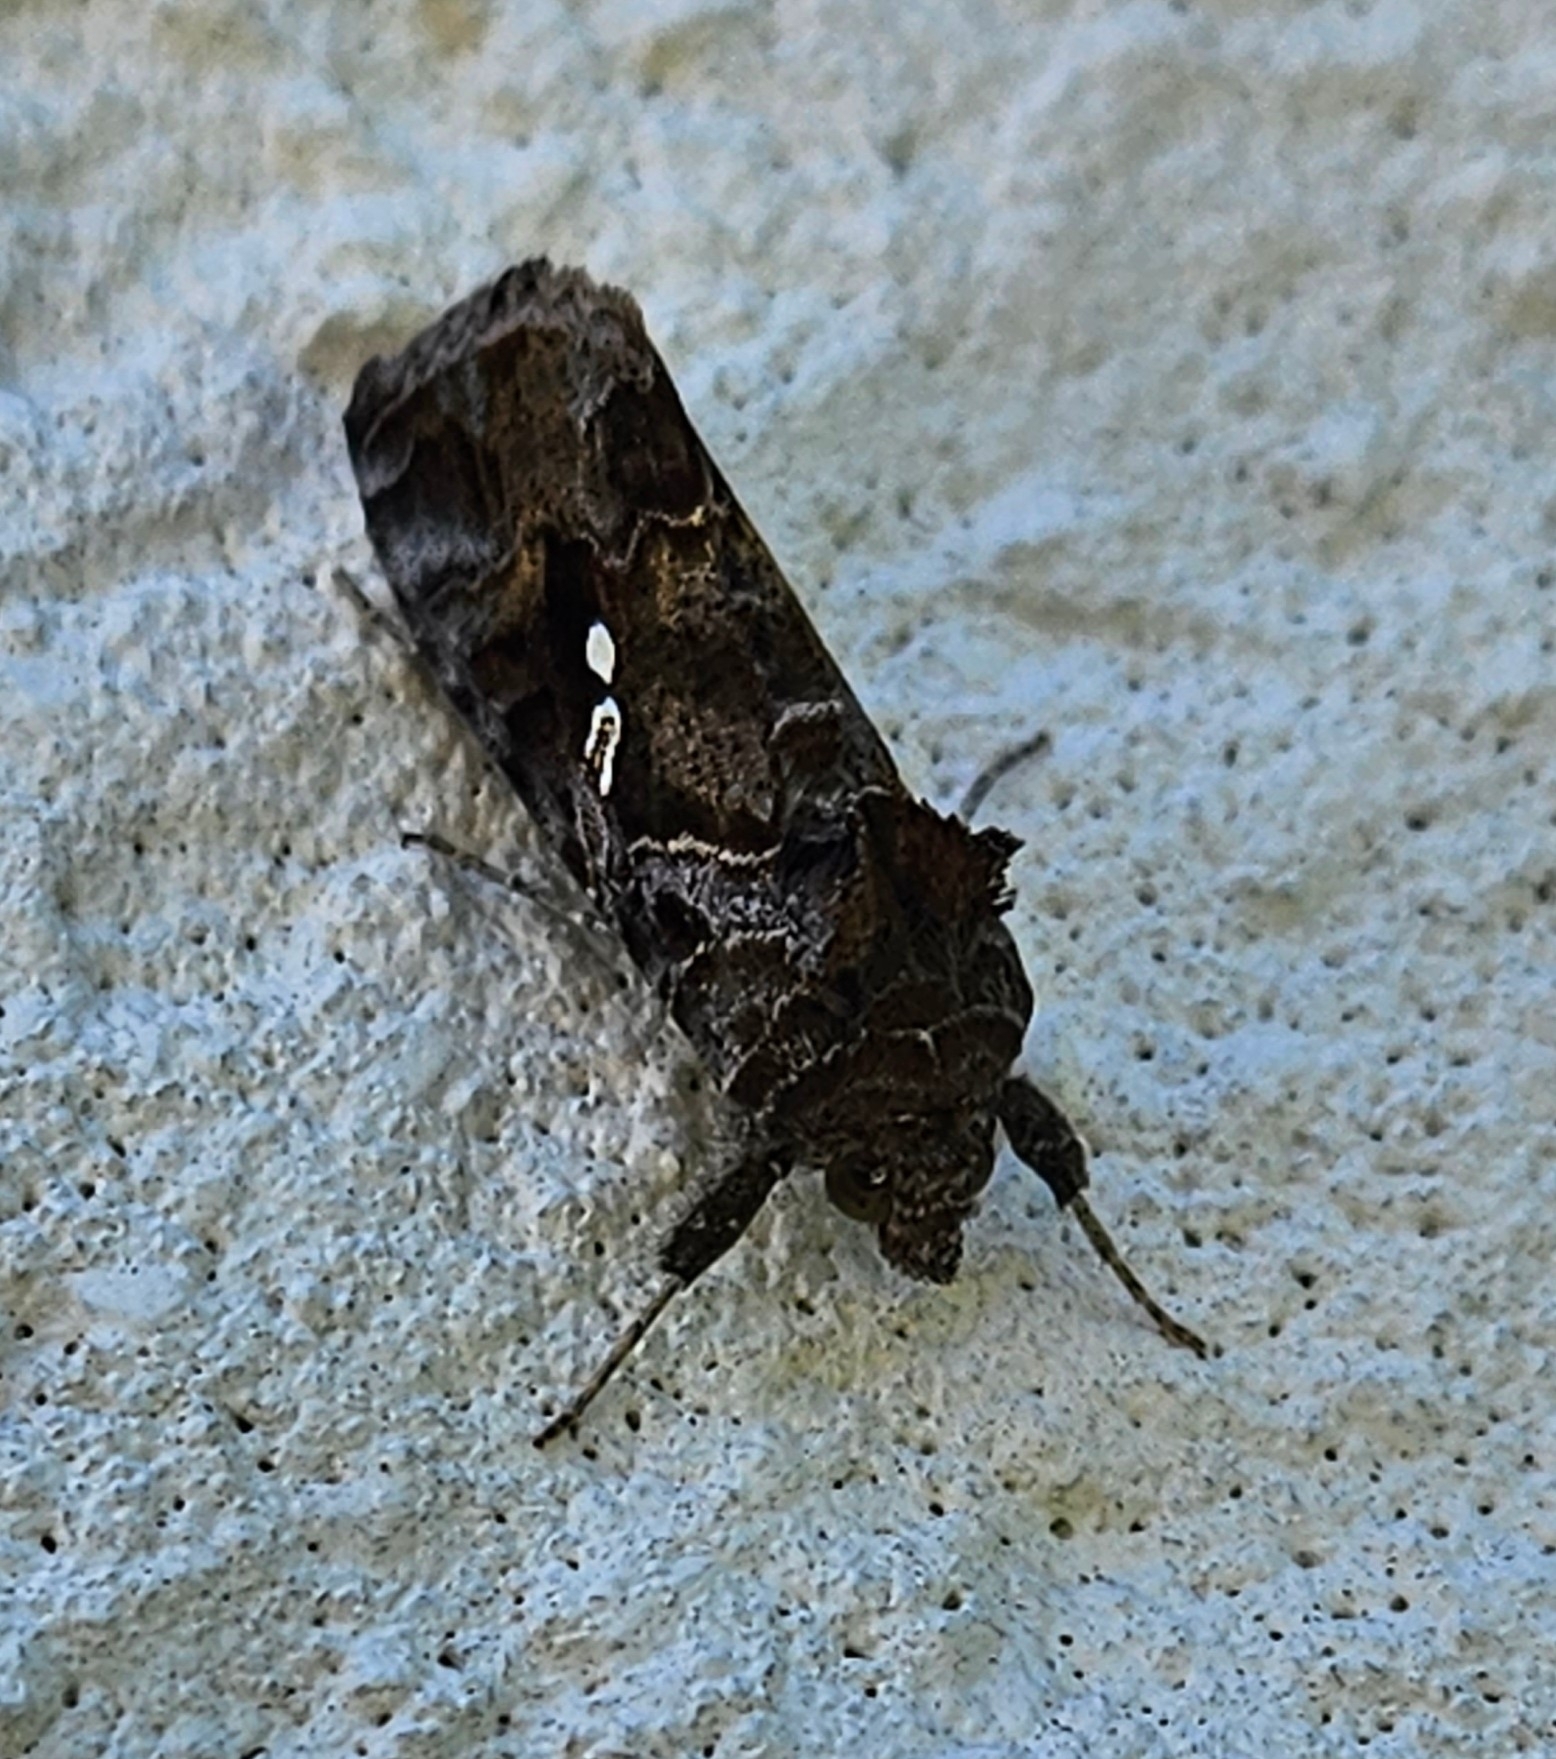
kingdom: Animalia
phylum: Arthropoda
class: Insecta
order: Lepidoptera
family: Noctuidae
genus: Chrysodeixis
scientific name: Chrysodeixis includens
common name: Cutworm moth
